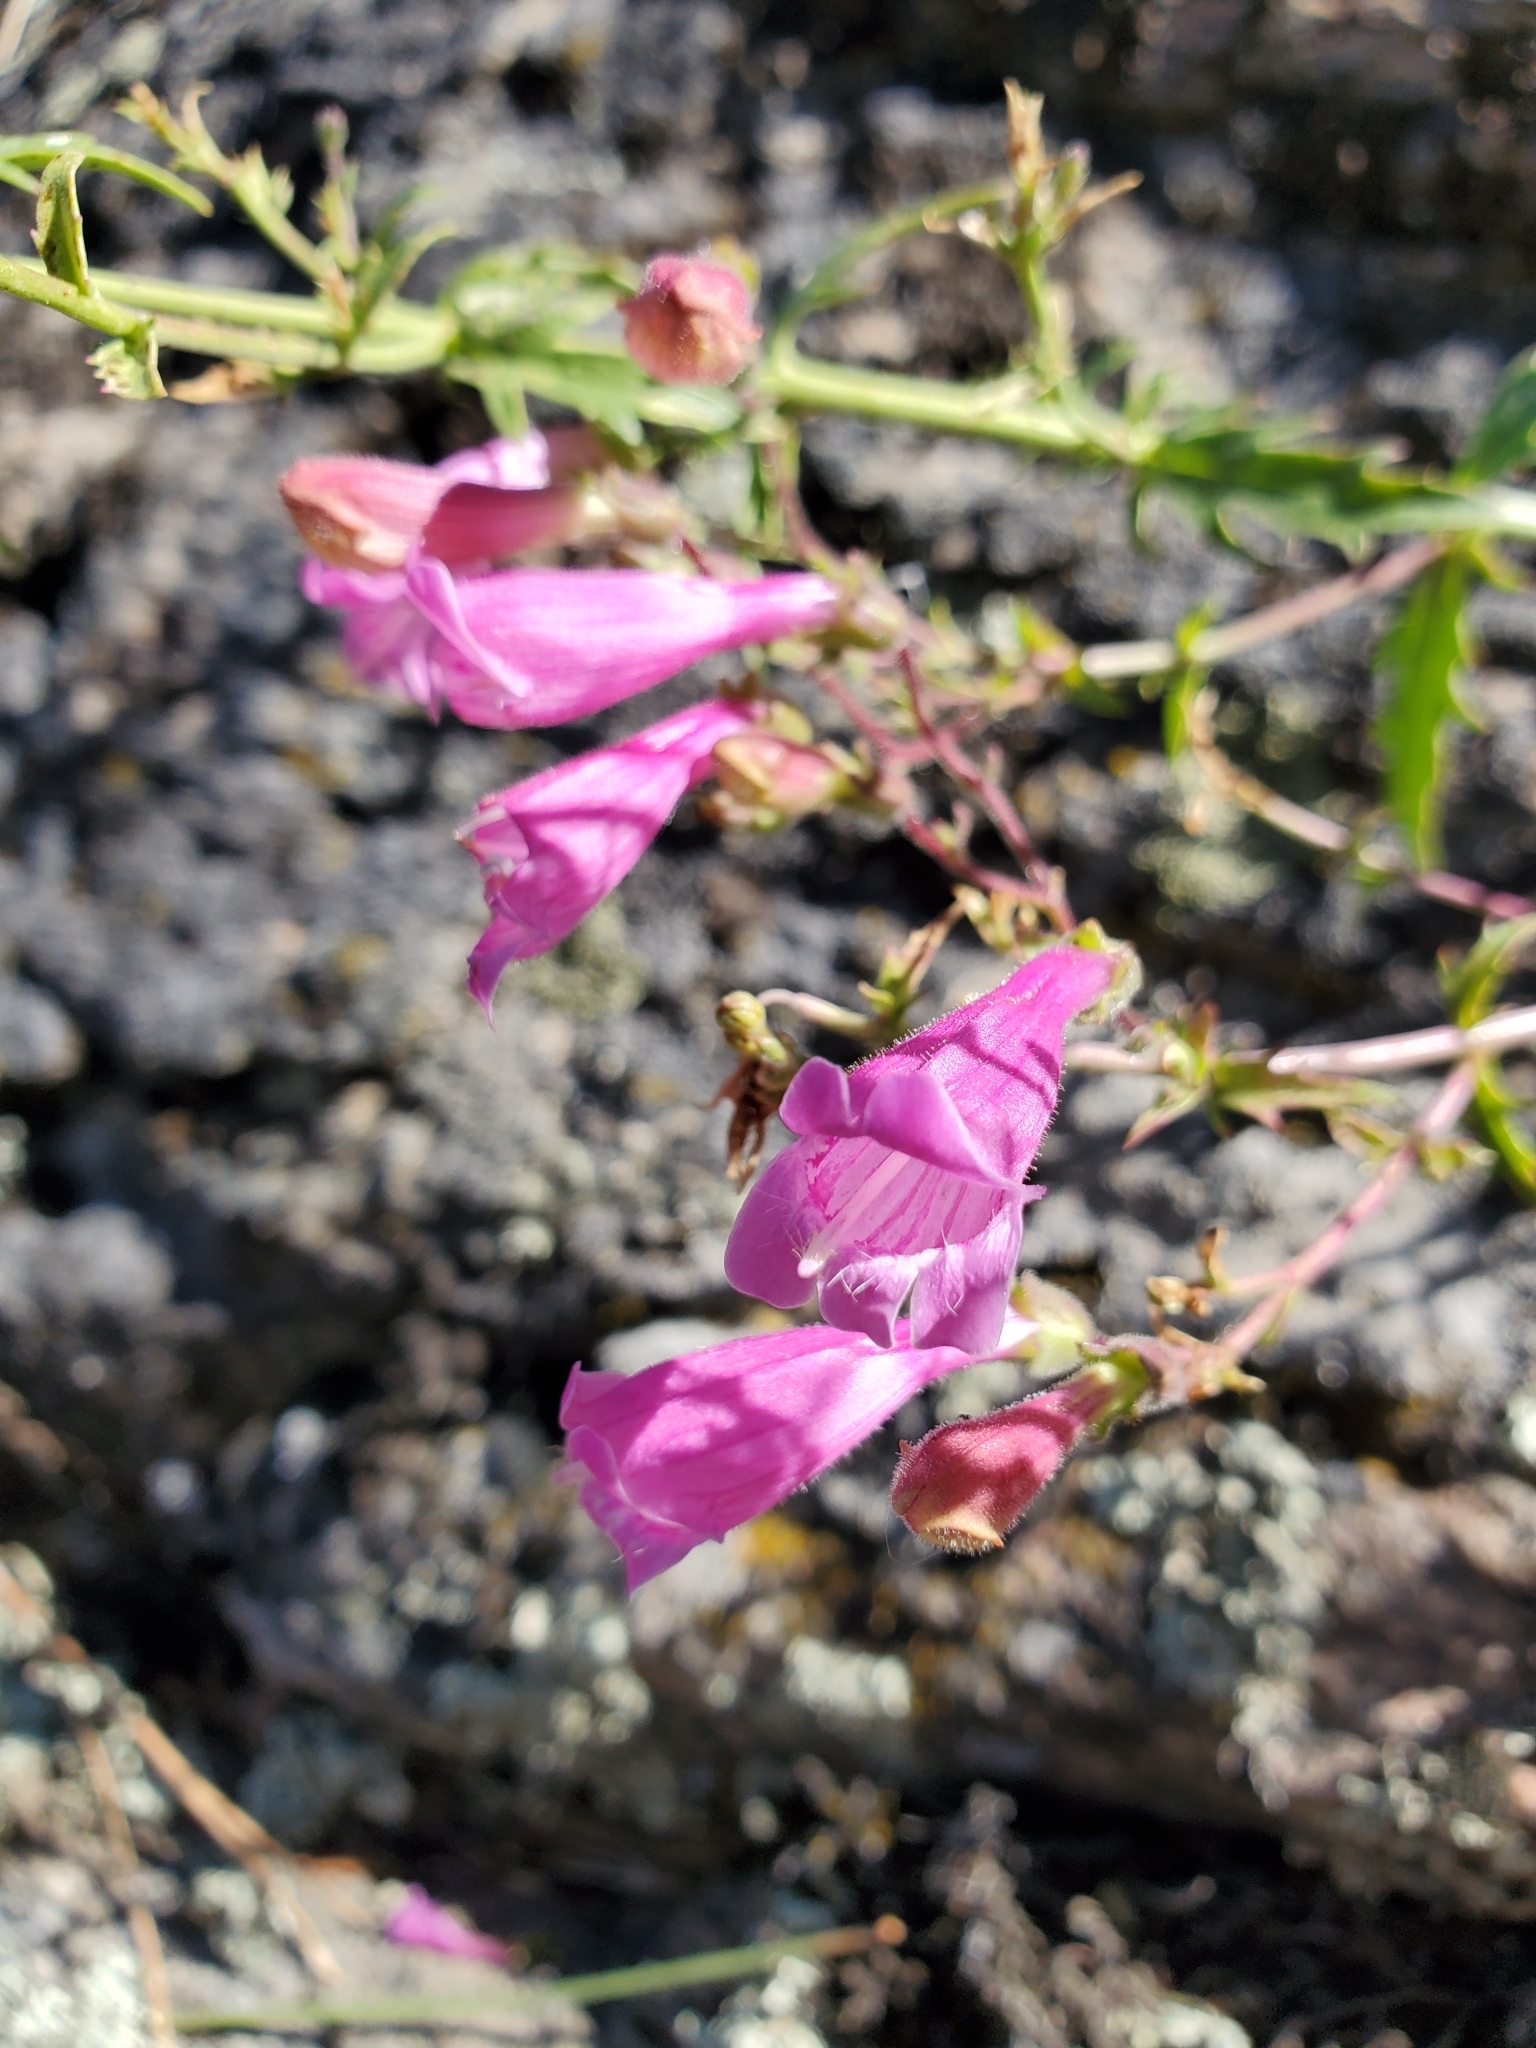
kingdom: Plantae
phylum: Tracheophyta
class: Magnoliopsida
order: Lamiales
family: Plantaginaceae
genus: Penstemon
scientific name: Penstemon richardsonii
